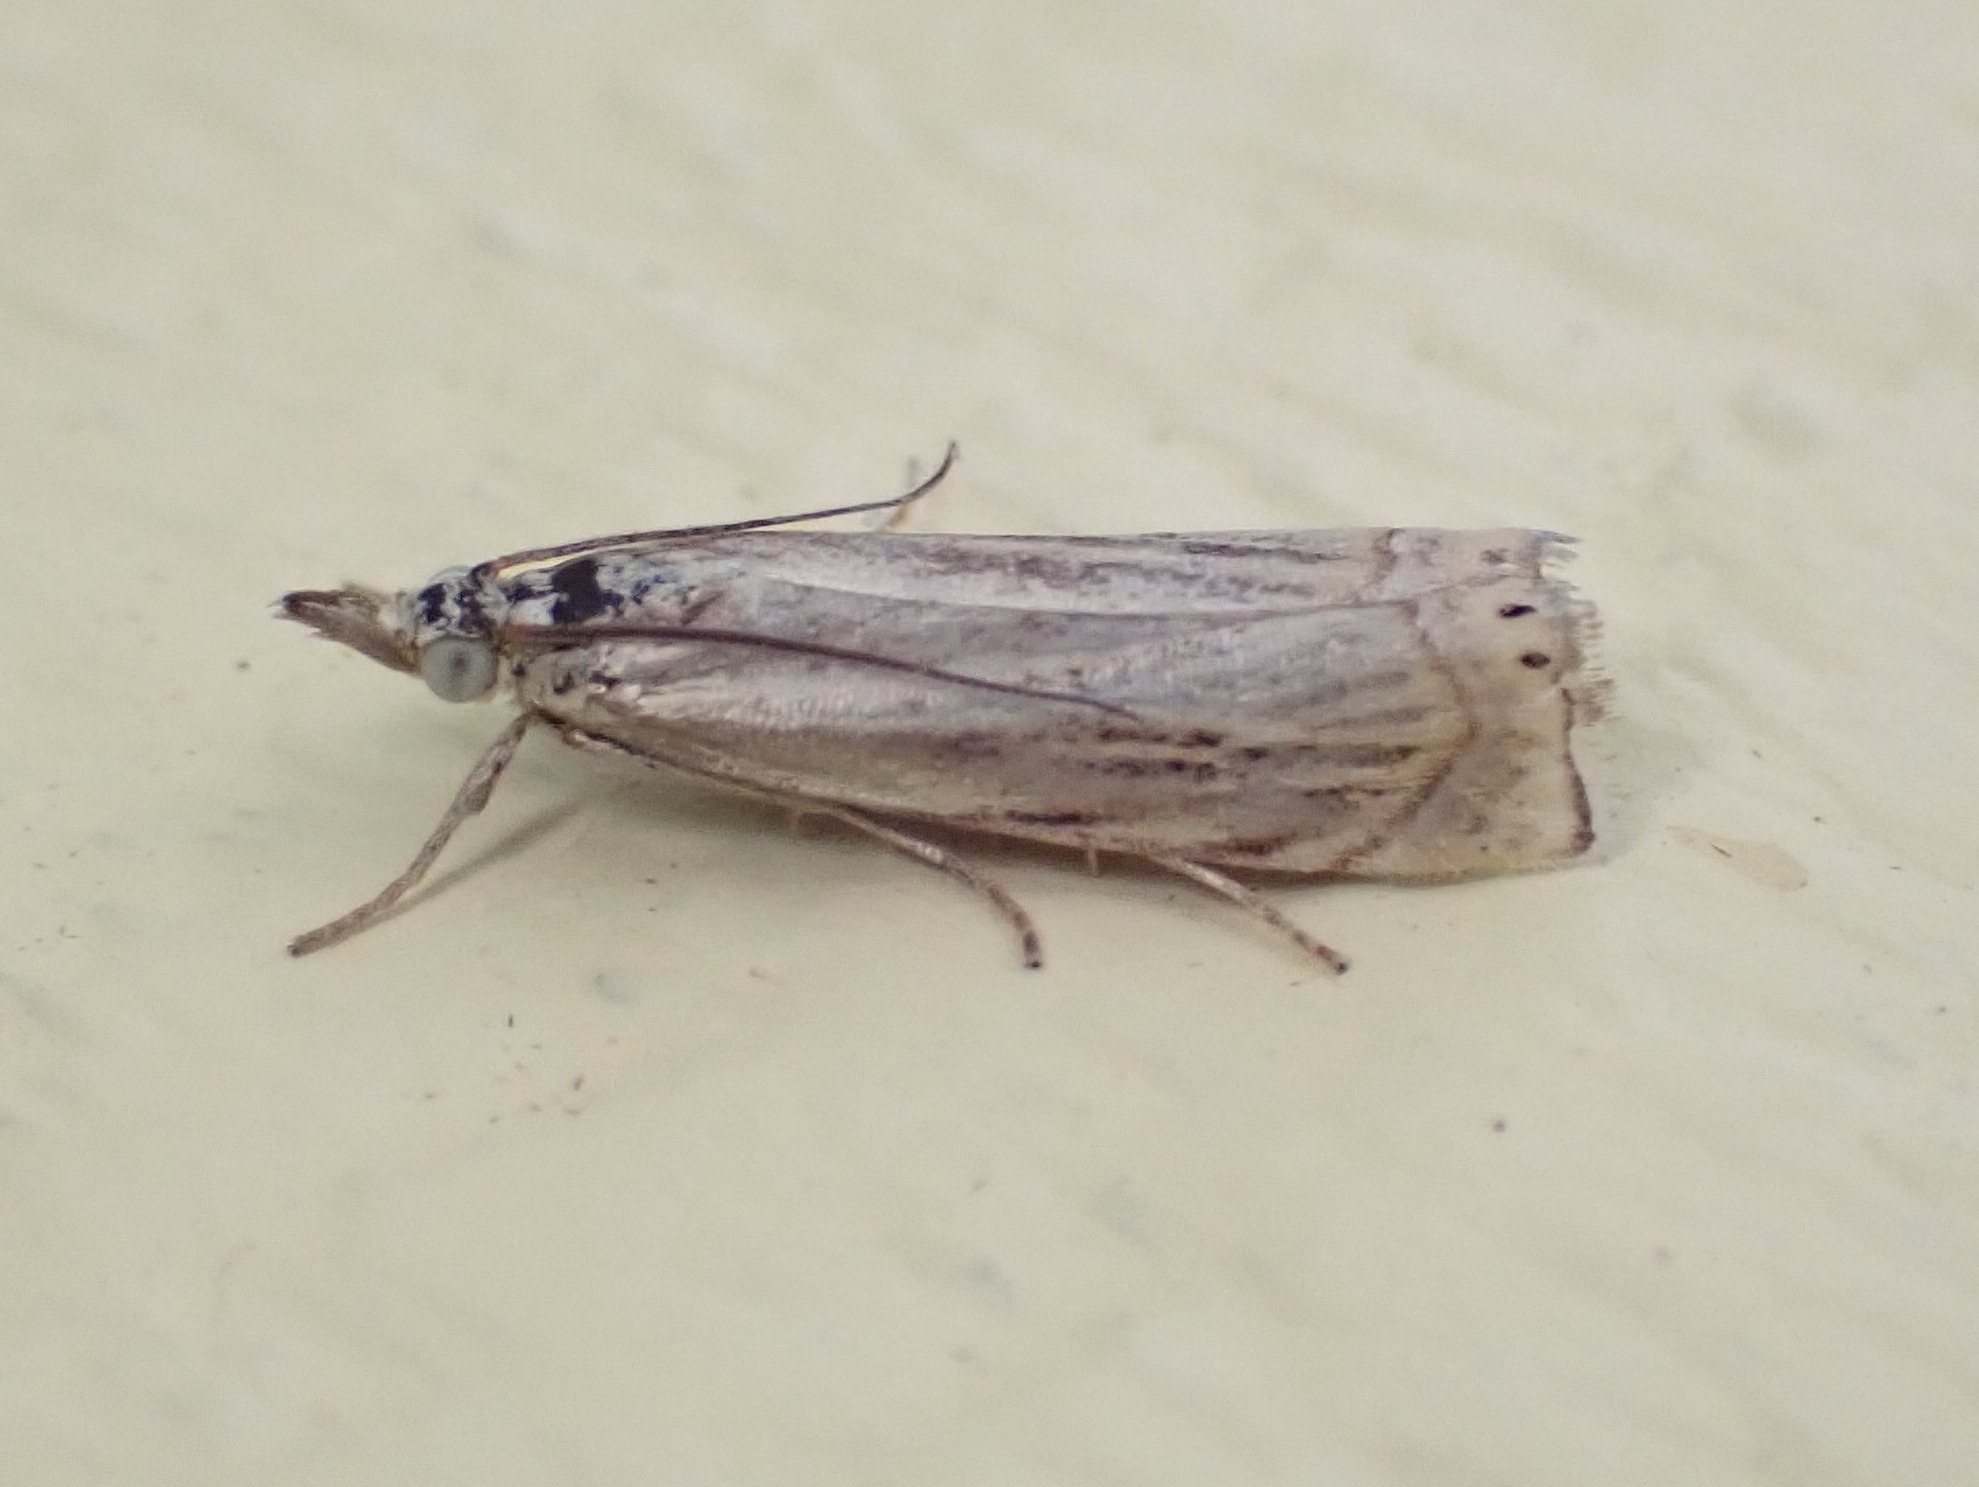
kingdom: Animalia
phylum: Arthropoda
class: Insecta
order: Lepidoptera
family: Crambidae
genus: Chrysoteuchia
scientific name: Chrysoteuchia topiarius
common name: Topiary grass-veneer
